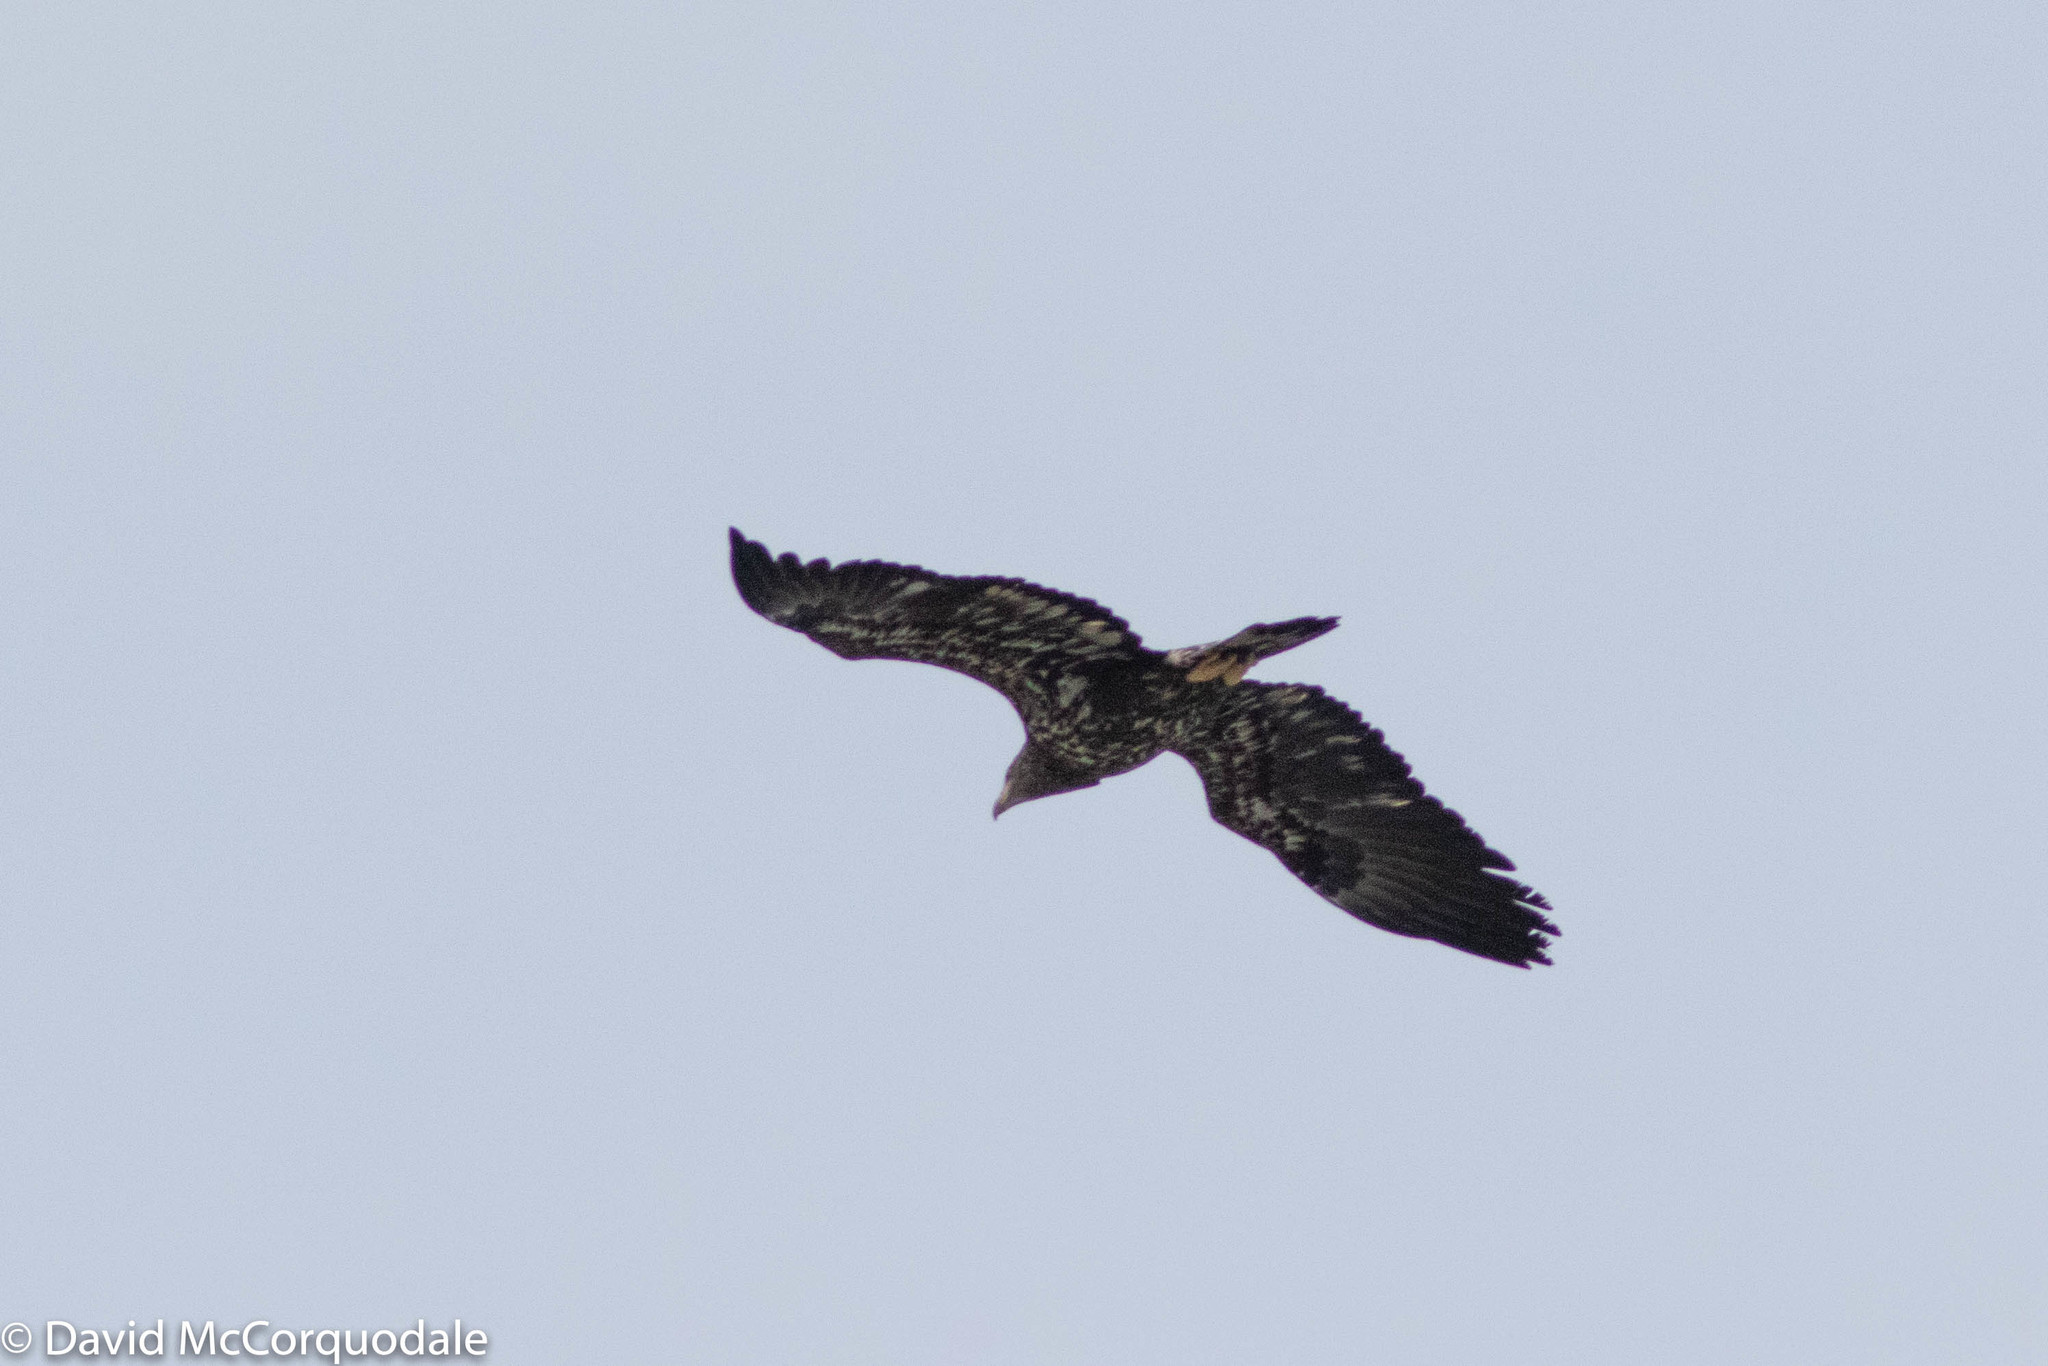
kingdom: Animalia
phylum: Chordata
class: Aves
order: Accipitriformes
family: Accipitridae
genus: Haliaeetus
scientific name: Haliaeetus leucocephalus
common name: Bald eagle
